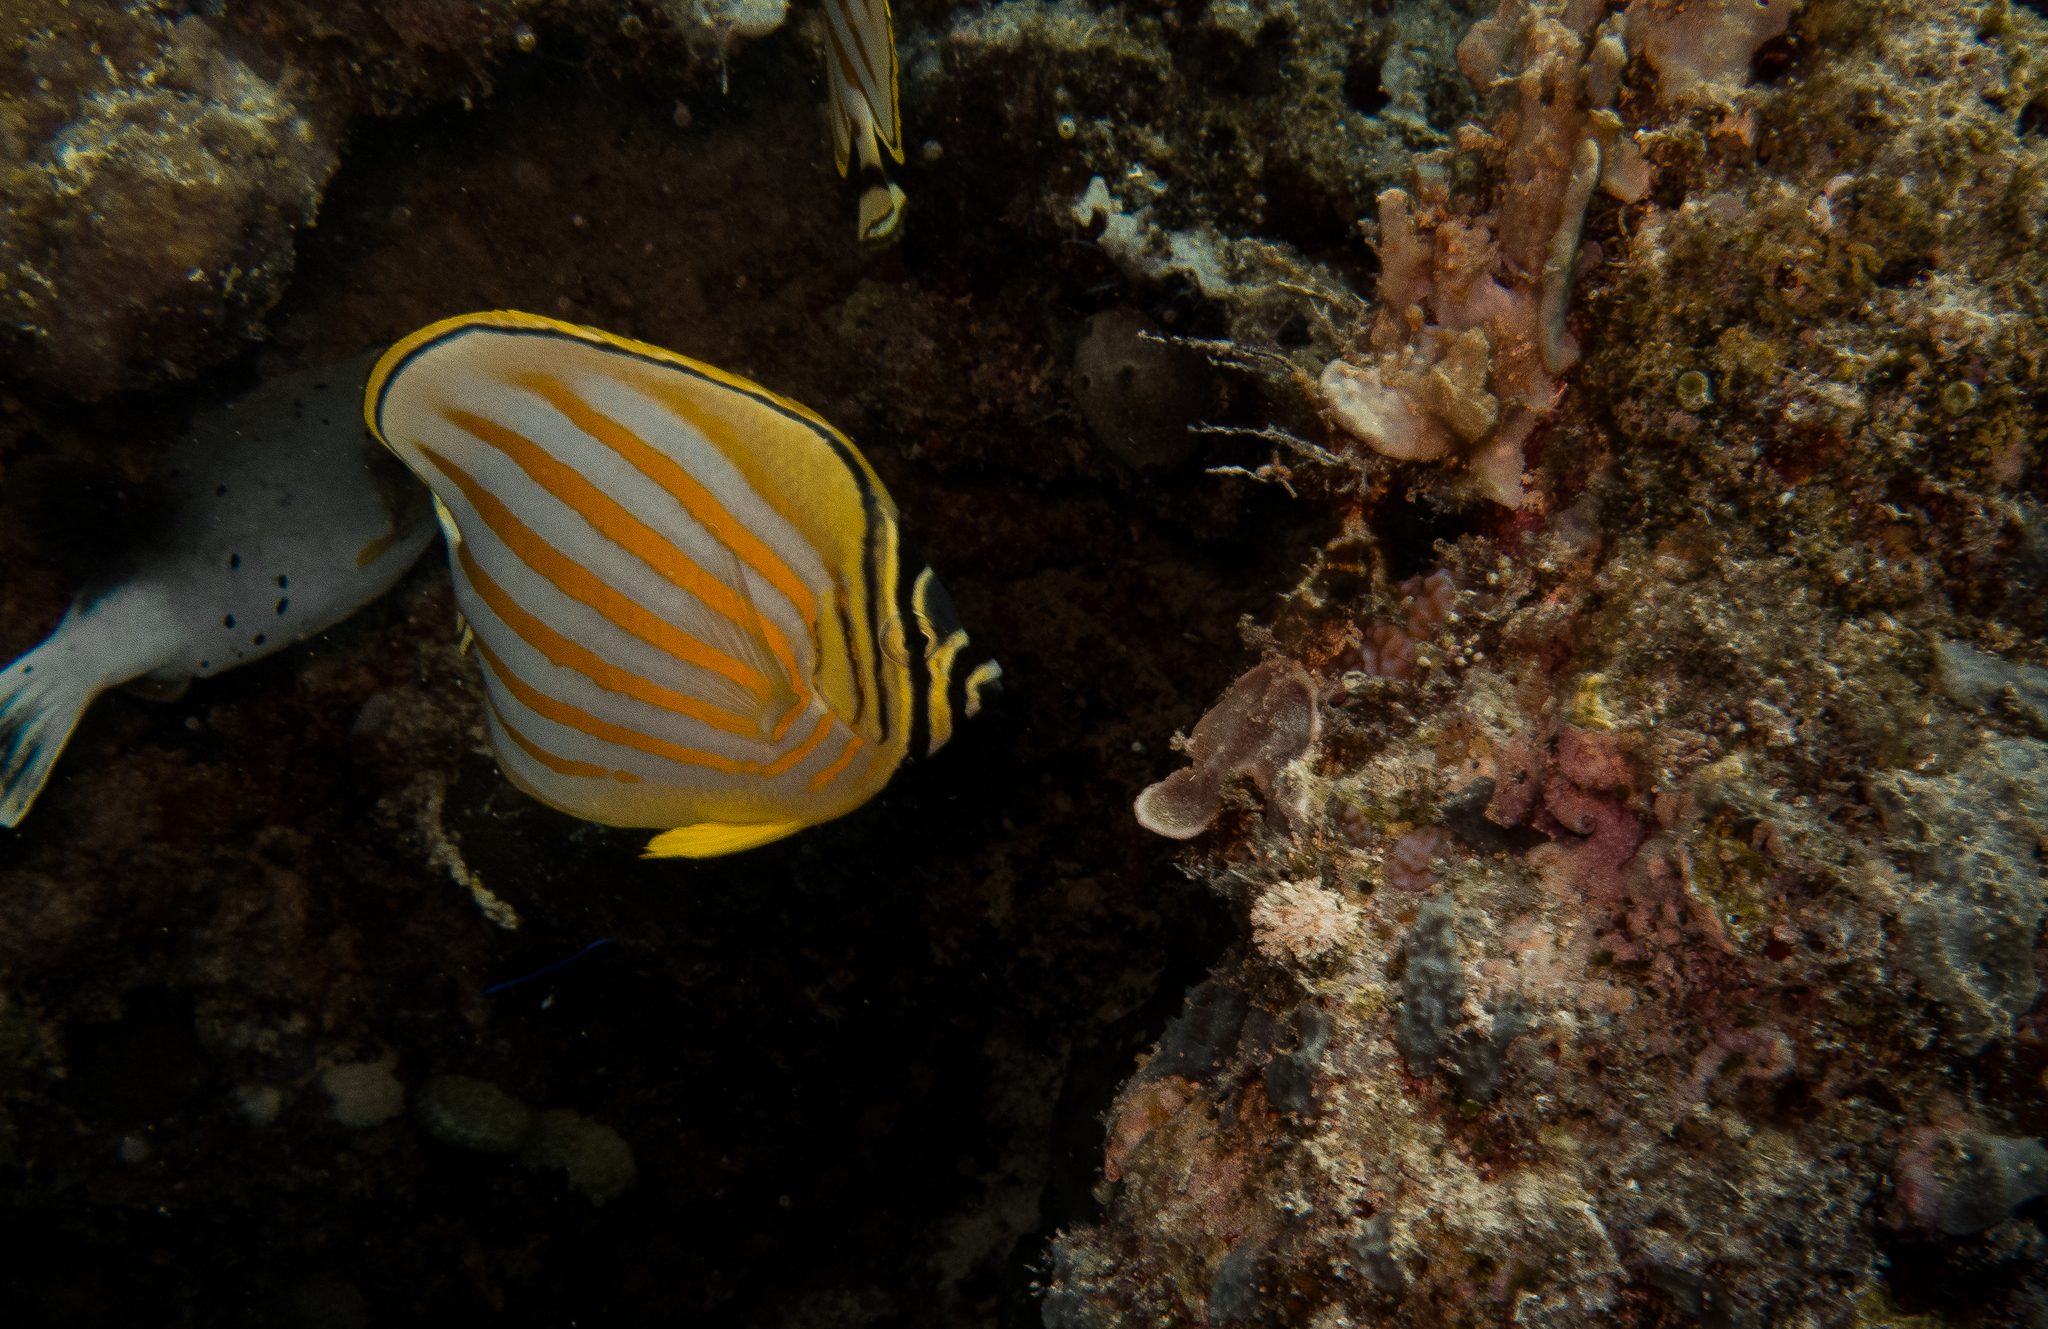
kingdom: Animalia
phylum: Chordata
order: Perciformes
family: Chaetodontidae
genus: Chaetodon
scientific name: Chaetodon ornatissimus
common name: Ornate butterflyfish
